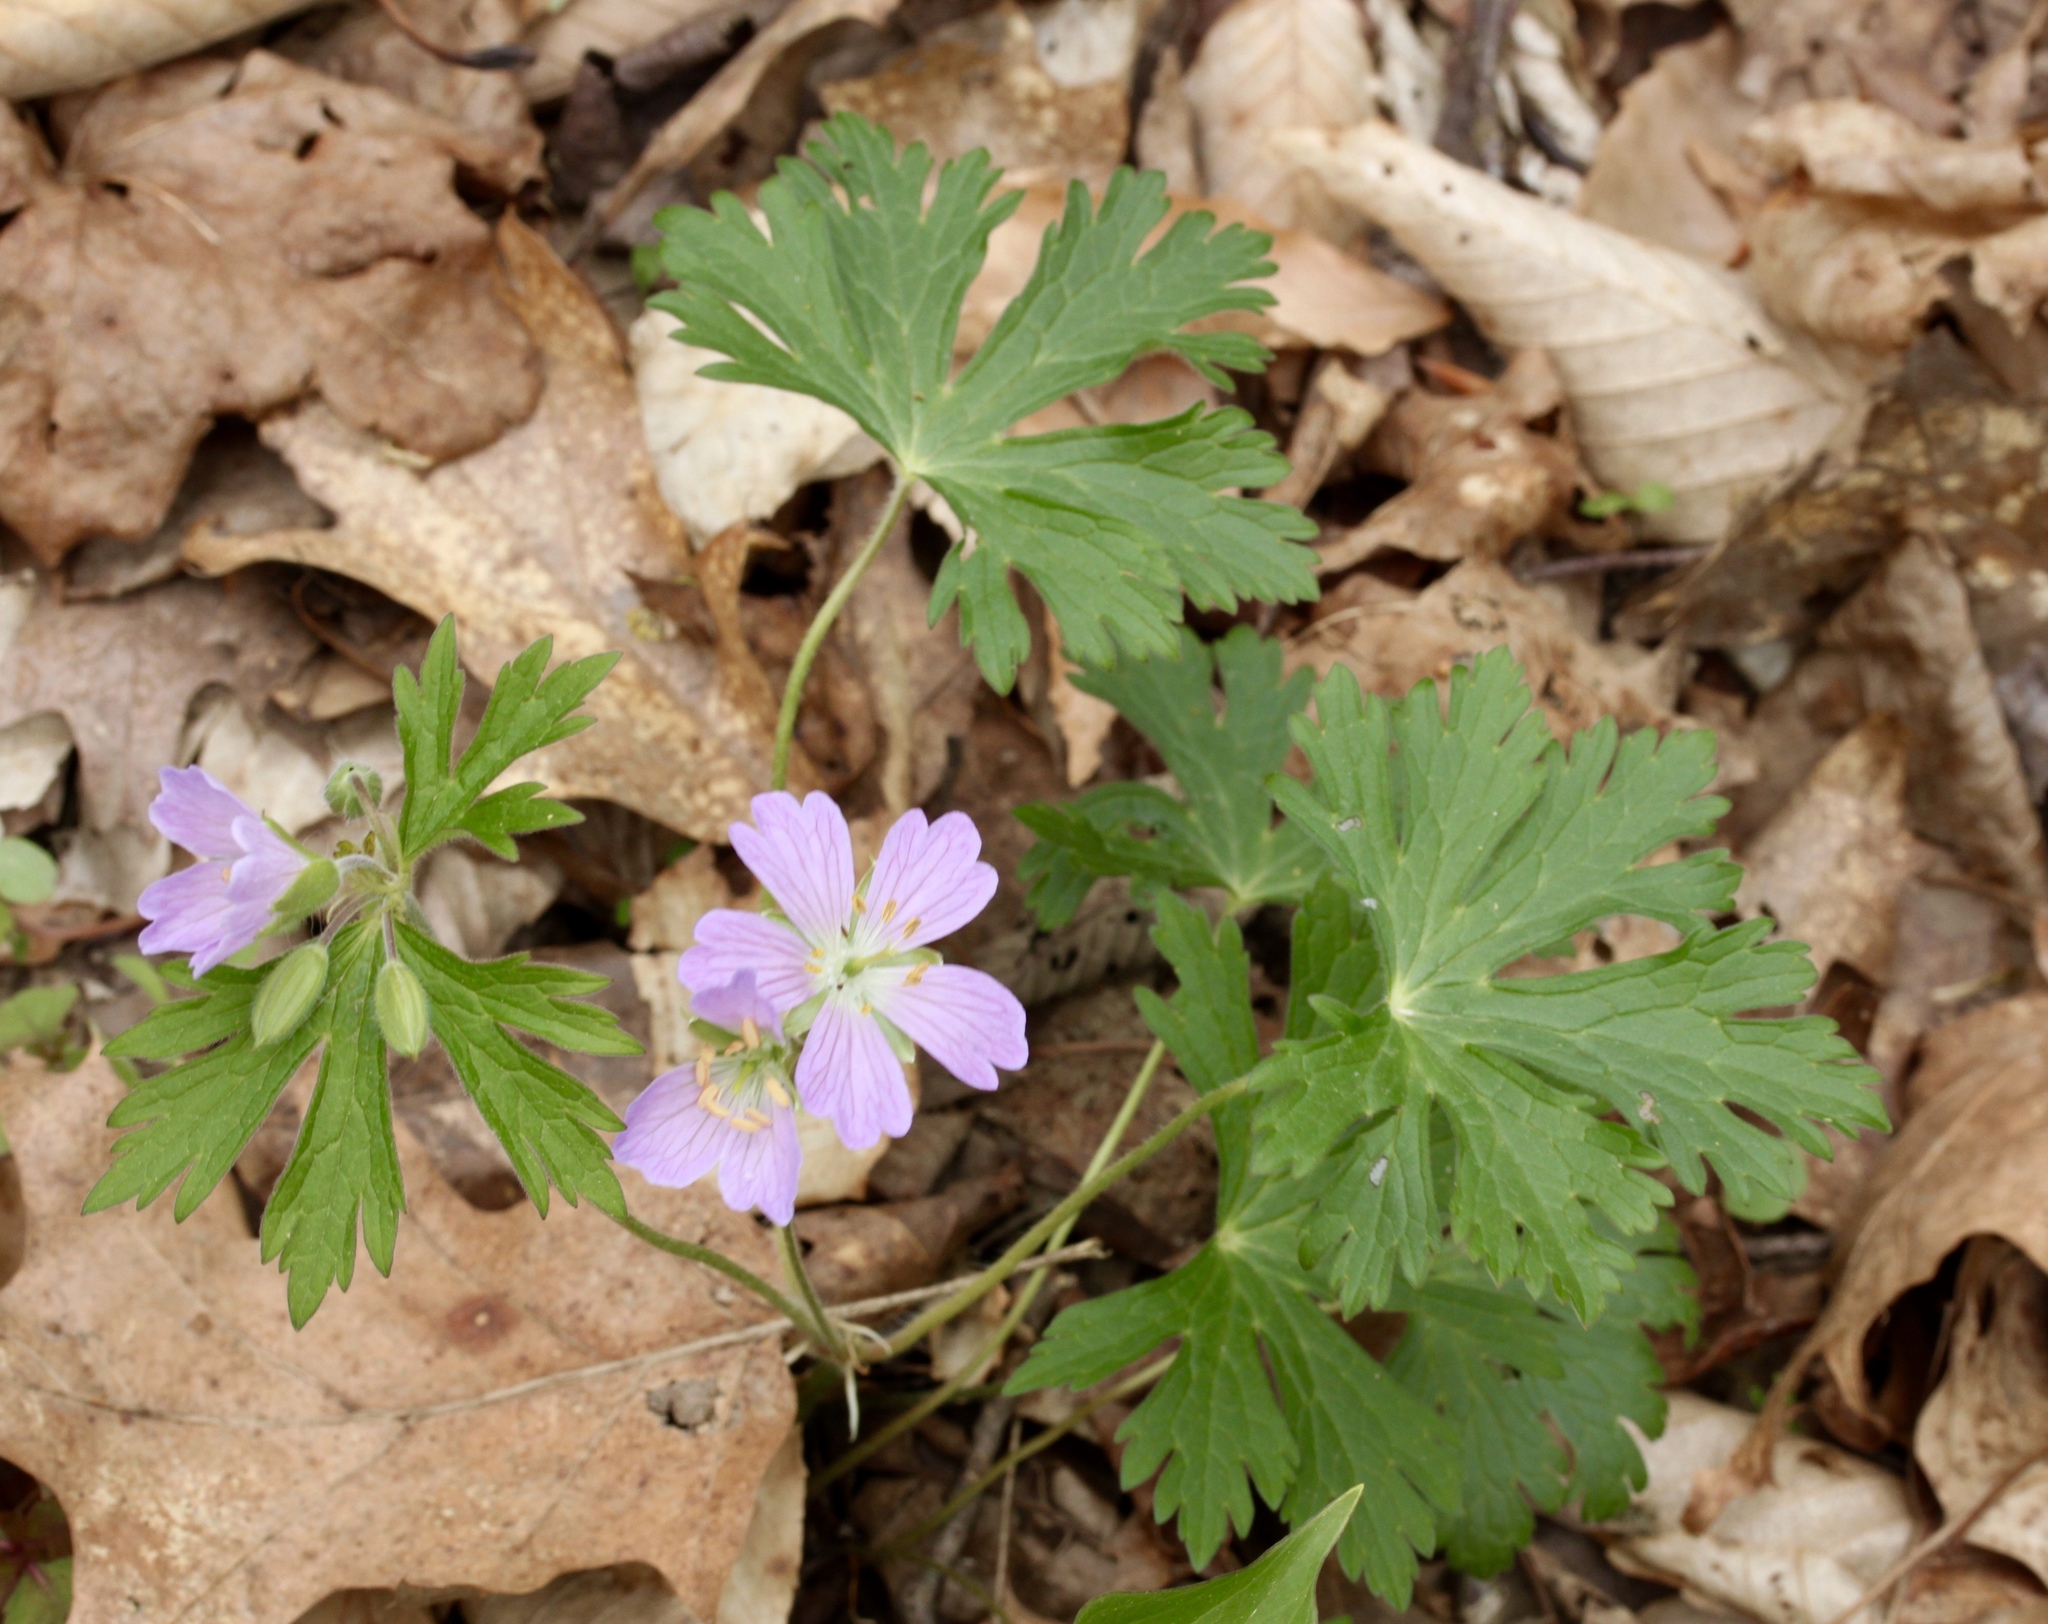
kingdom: Plantae
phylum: Tracheophyta
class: Magnoliopsida
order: Geraniales
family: Geraniaceae
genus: Geranium
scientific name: Geranium maculatum
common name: Spotted geranium
